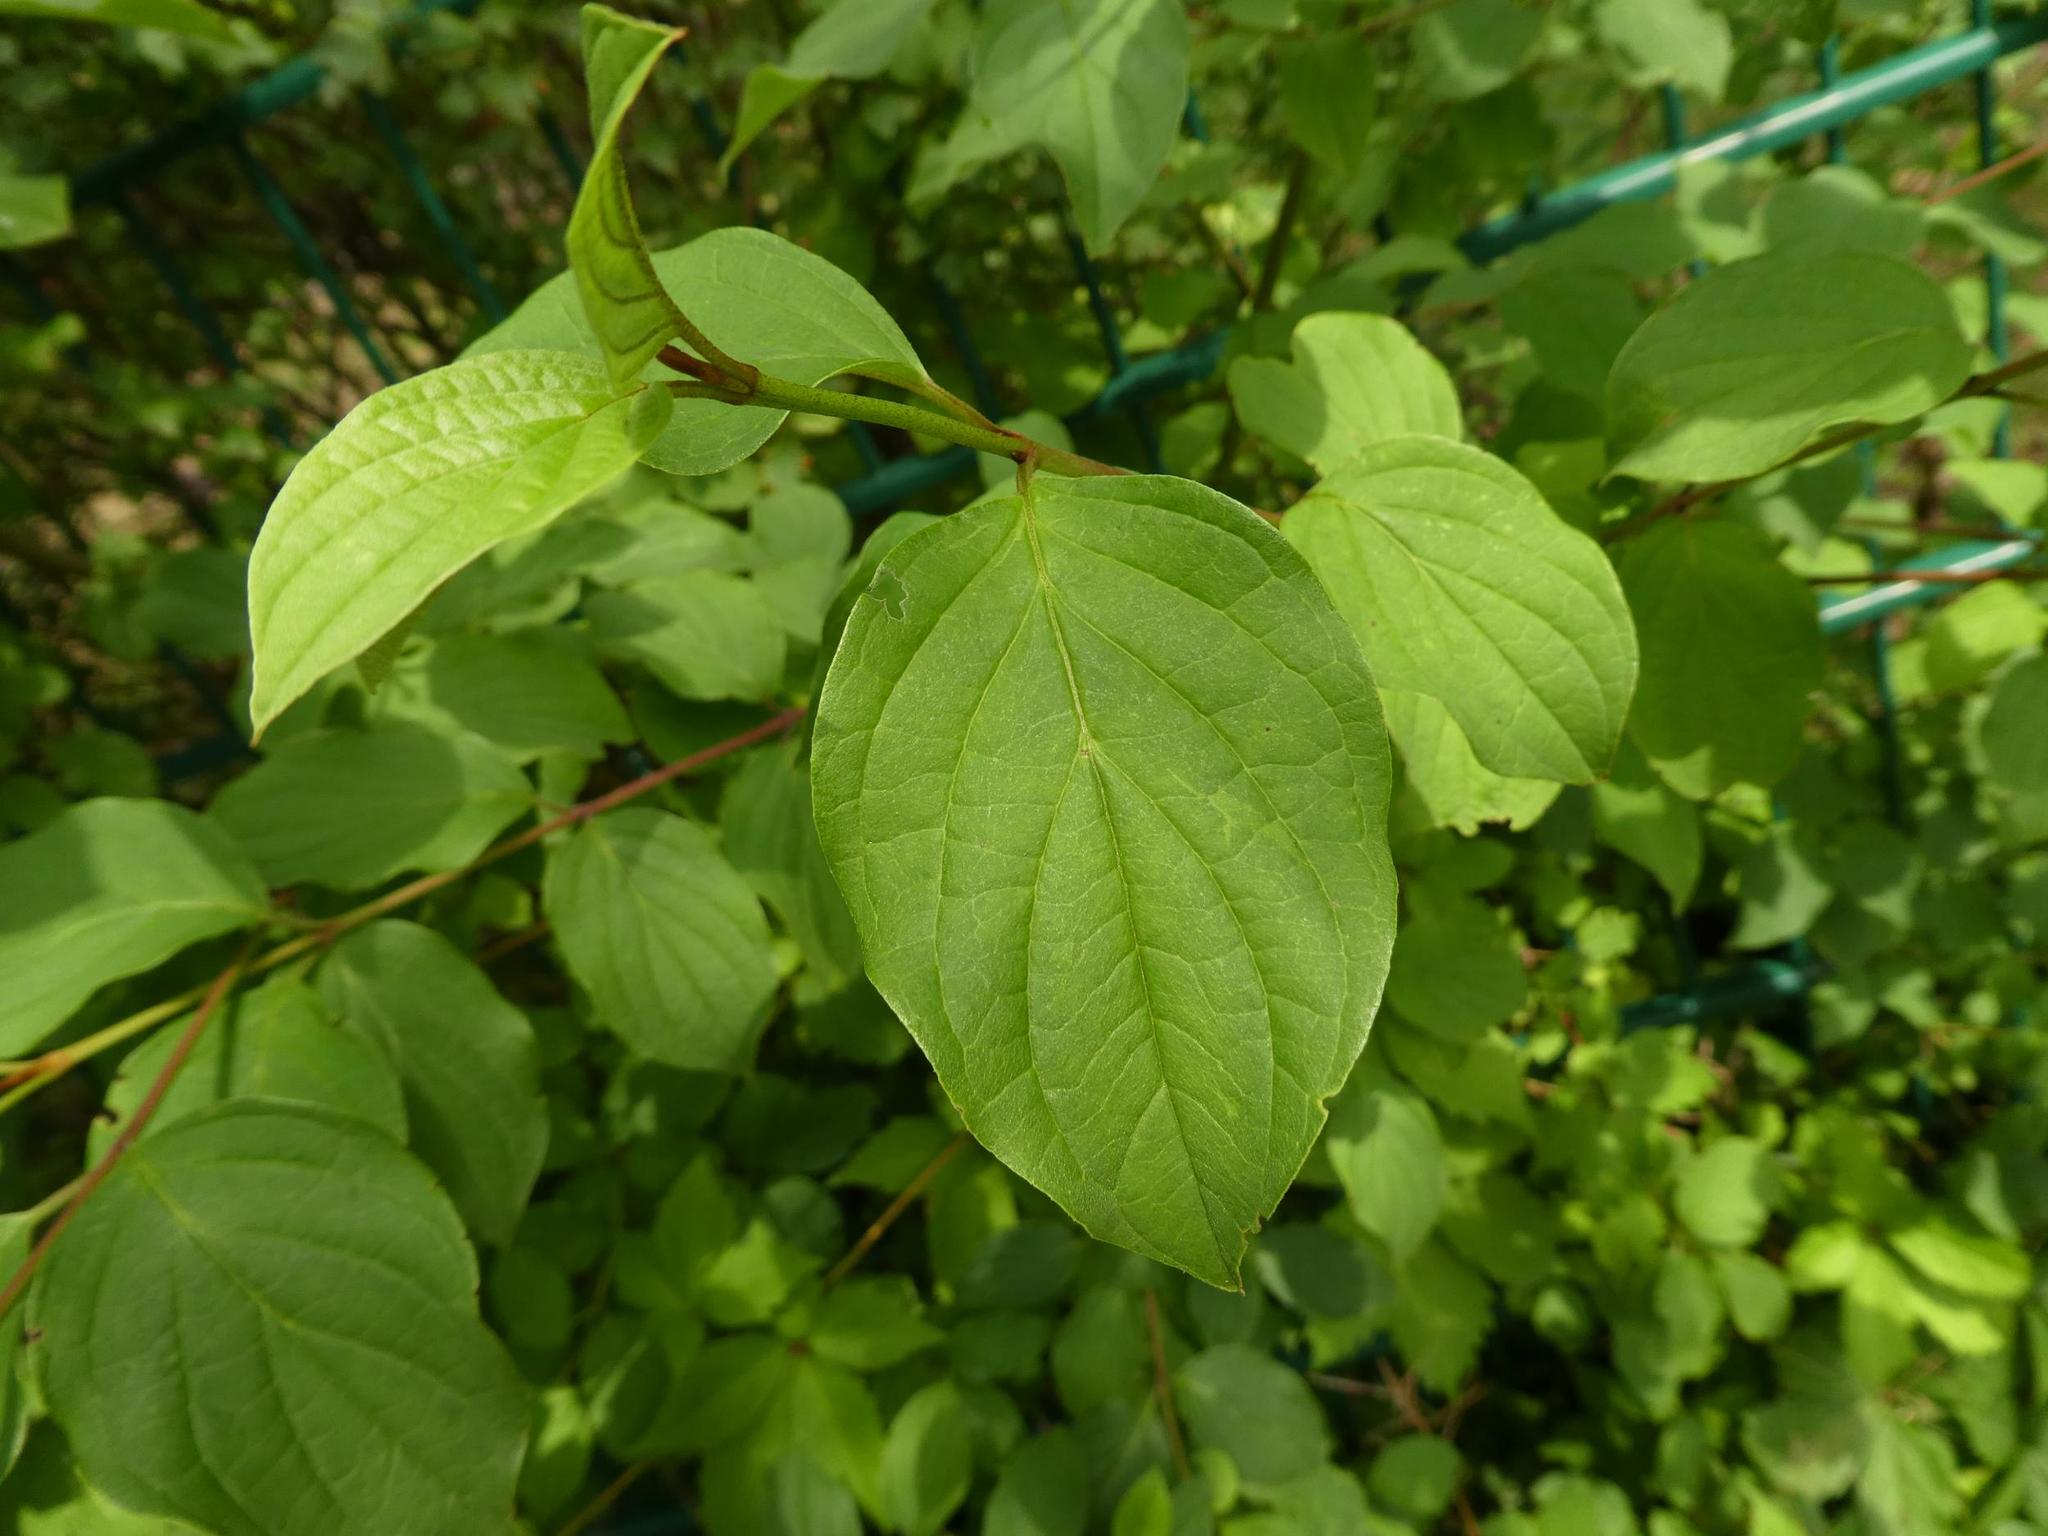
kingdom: Plantae
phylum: Tracheophyta
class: Magnoliopsida
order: Cornales
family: Cornaceae
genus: Cornus
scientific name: Cornus sanguinea
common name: Dogwood
